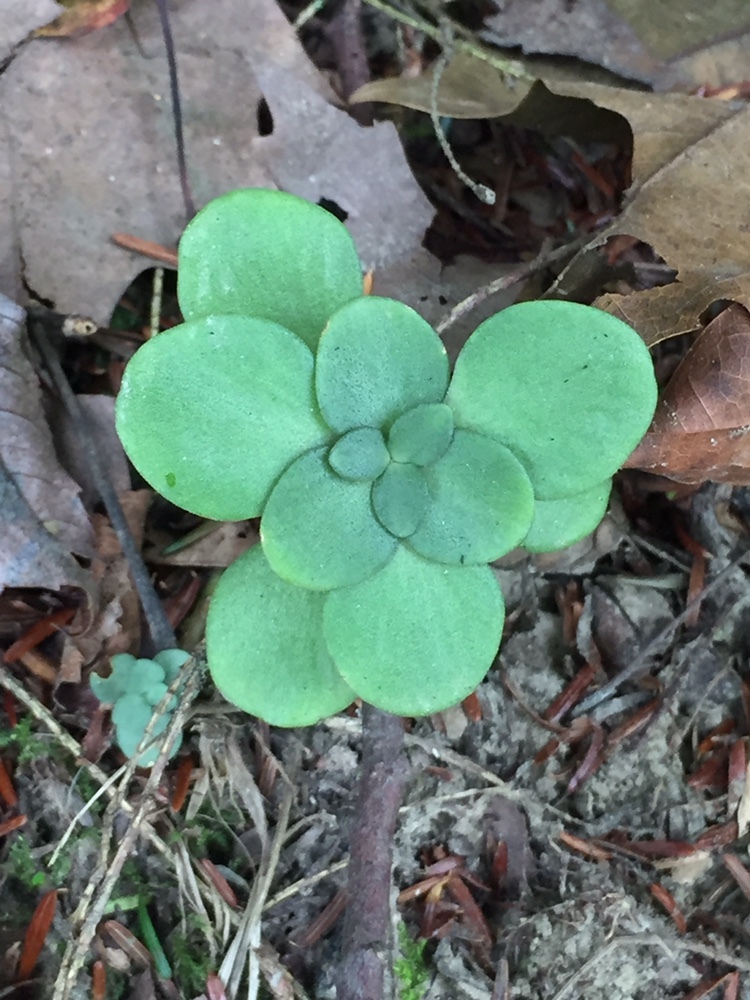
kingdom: Plantae
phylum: Tracheophyta
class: Magnoliopsida
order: Saxifragales
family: Crassulaceae
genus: Sedum
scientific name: Sedum ternatum
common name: Wild stonecrop
